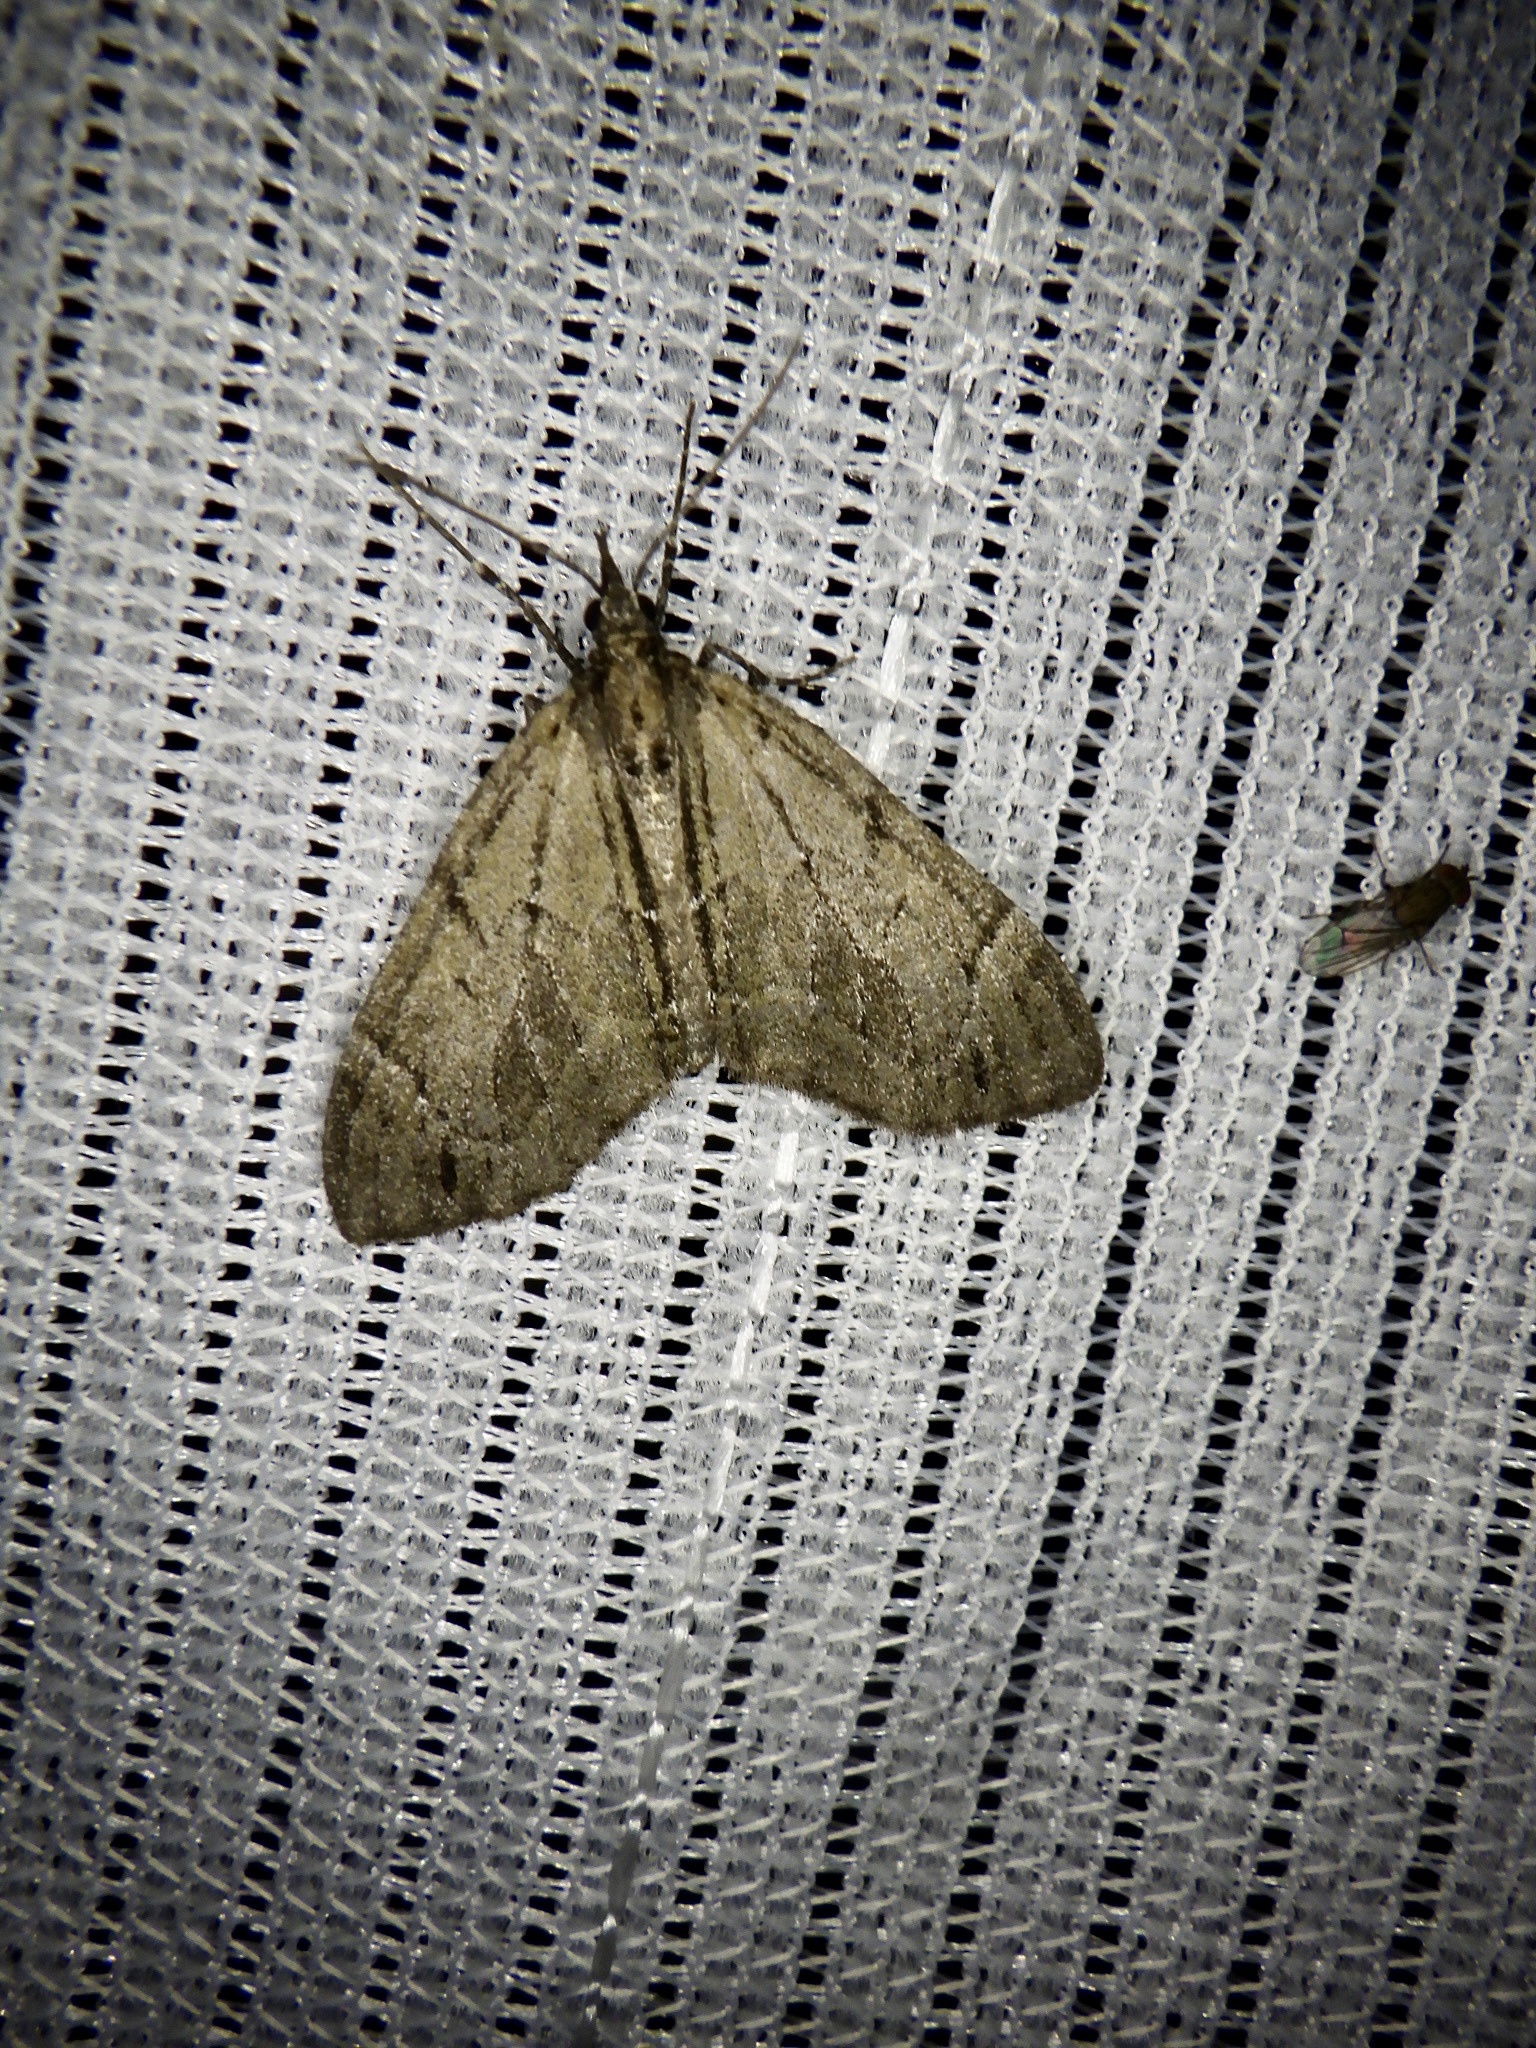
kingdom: Animalia
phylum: Arthropoda
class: Insecta
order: Lepidoptera
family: Geometridae
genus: Lobophorodes
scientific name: Lobophorodes
